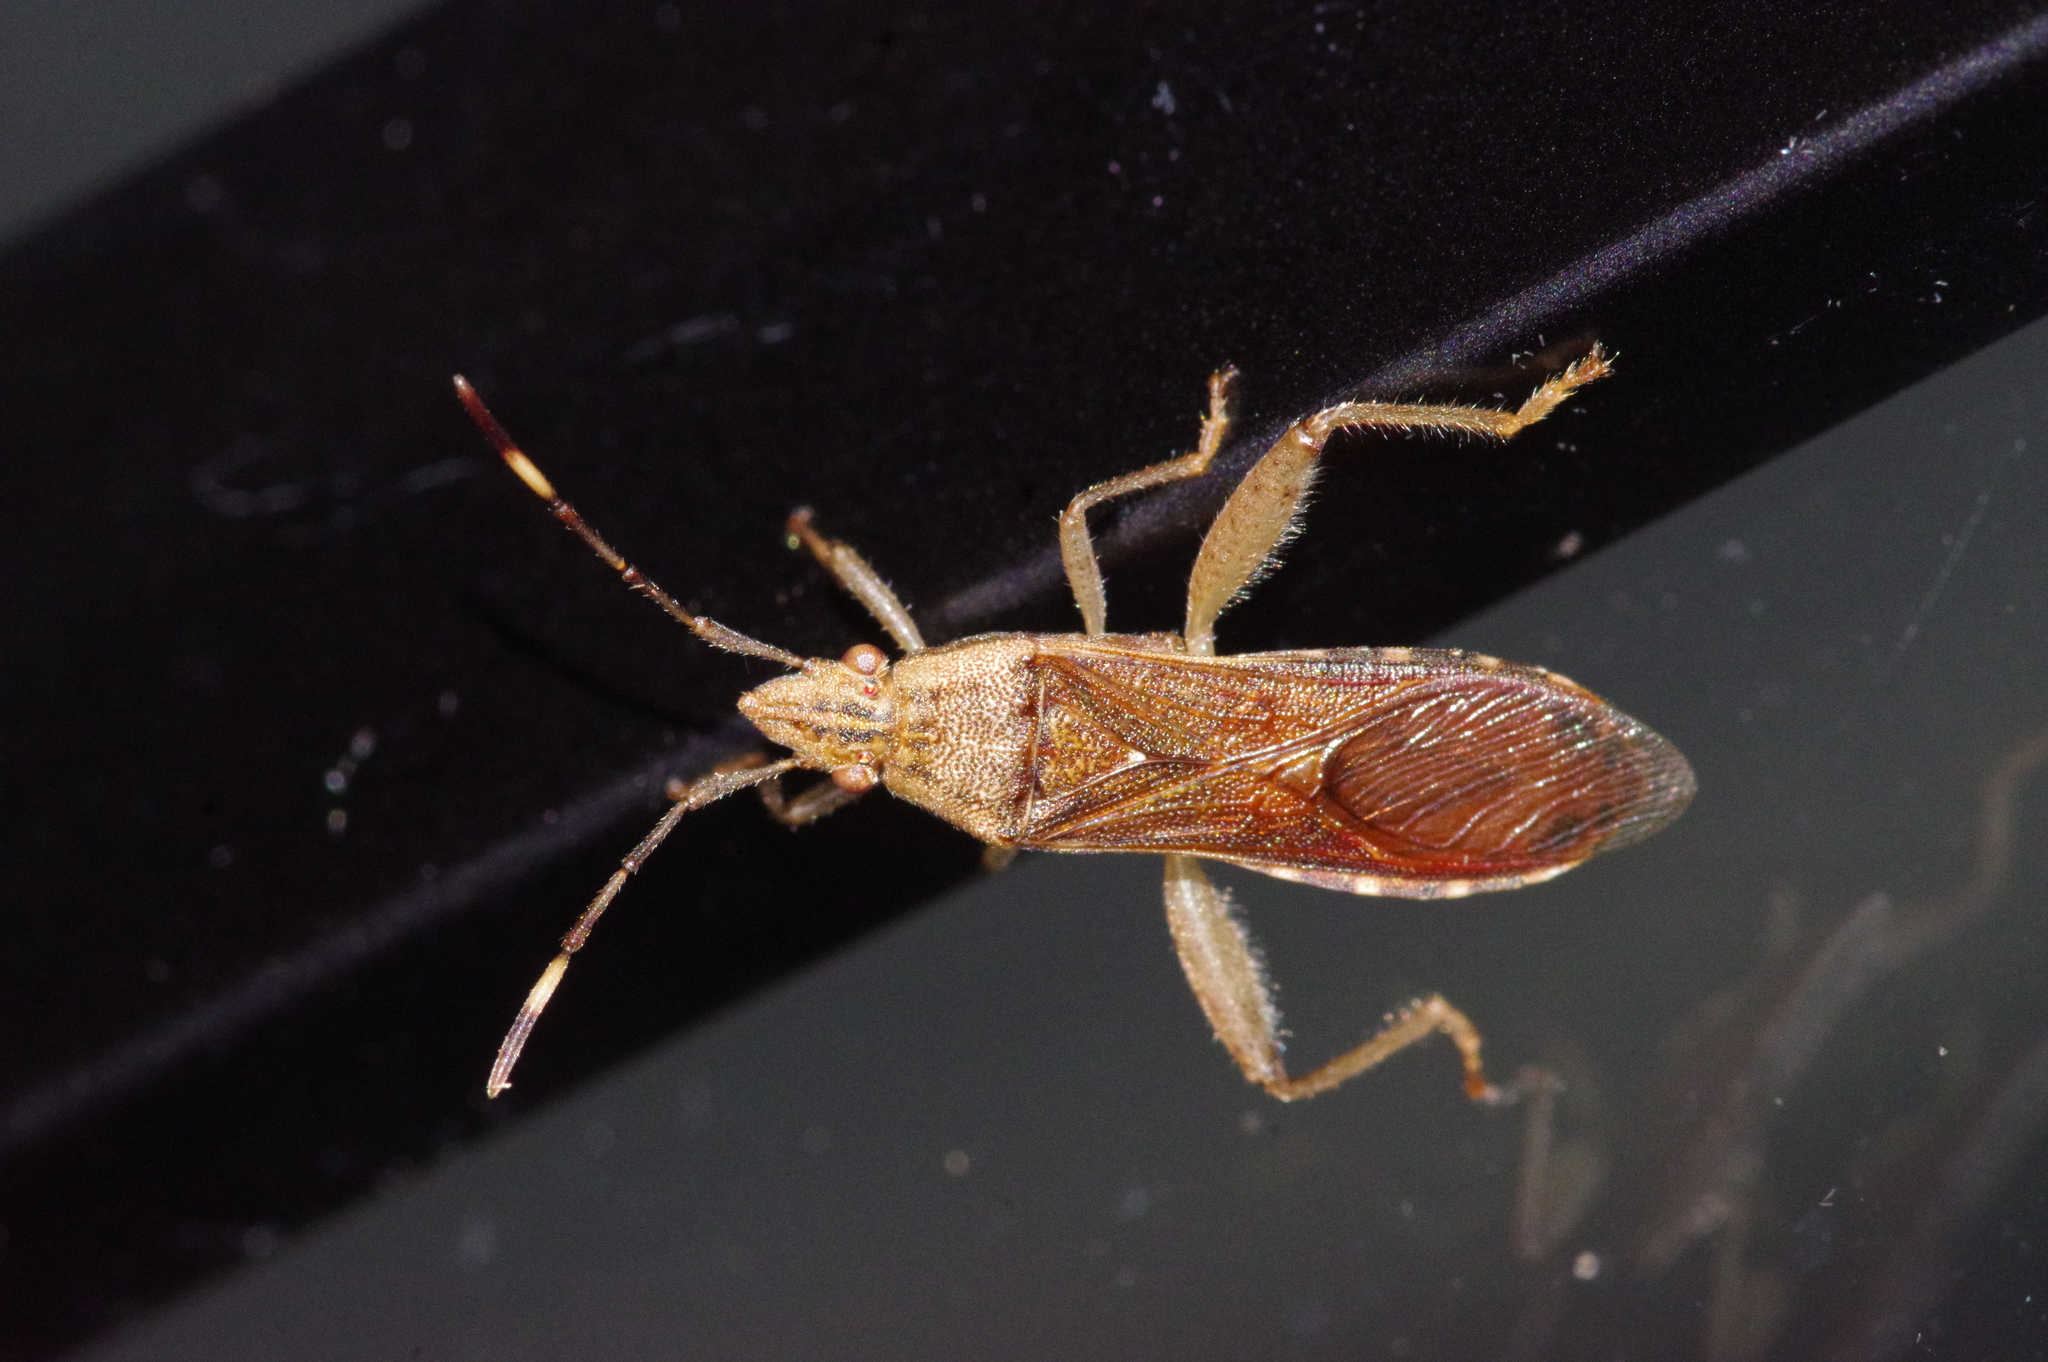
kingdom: Animalia
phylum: Arthropoda
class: Insecta
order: Hemiptera
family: Alydidae
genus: Daclera
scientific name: Daclera levana
